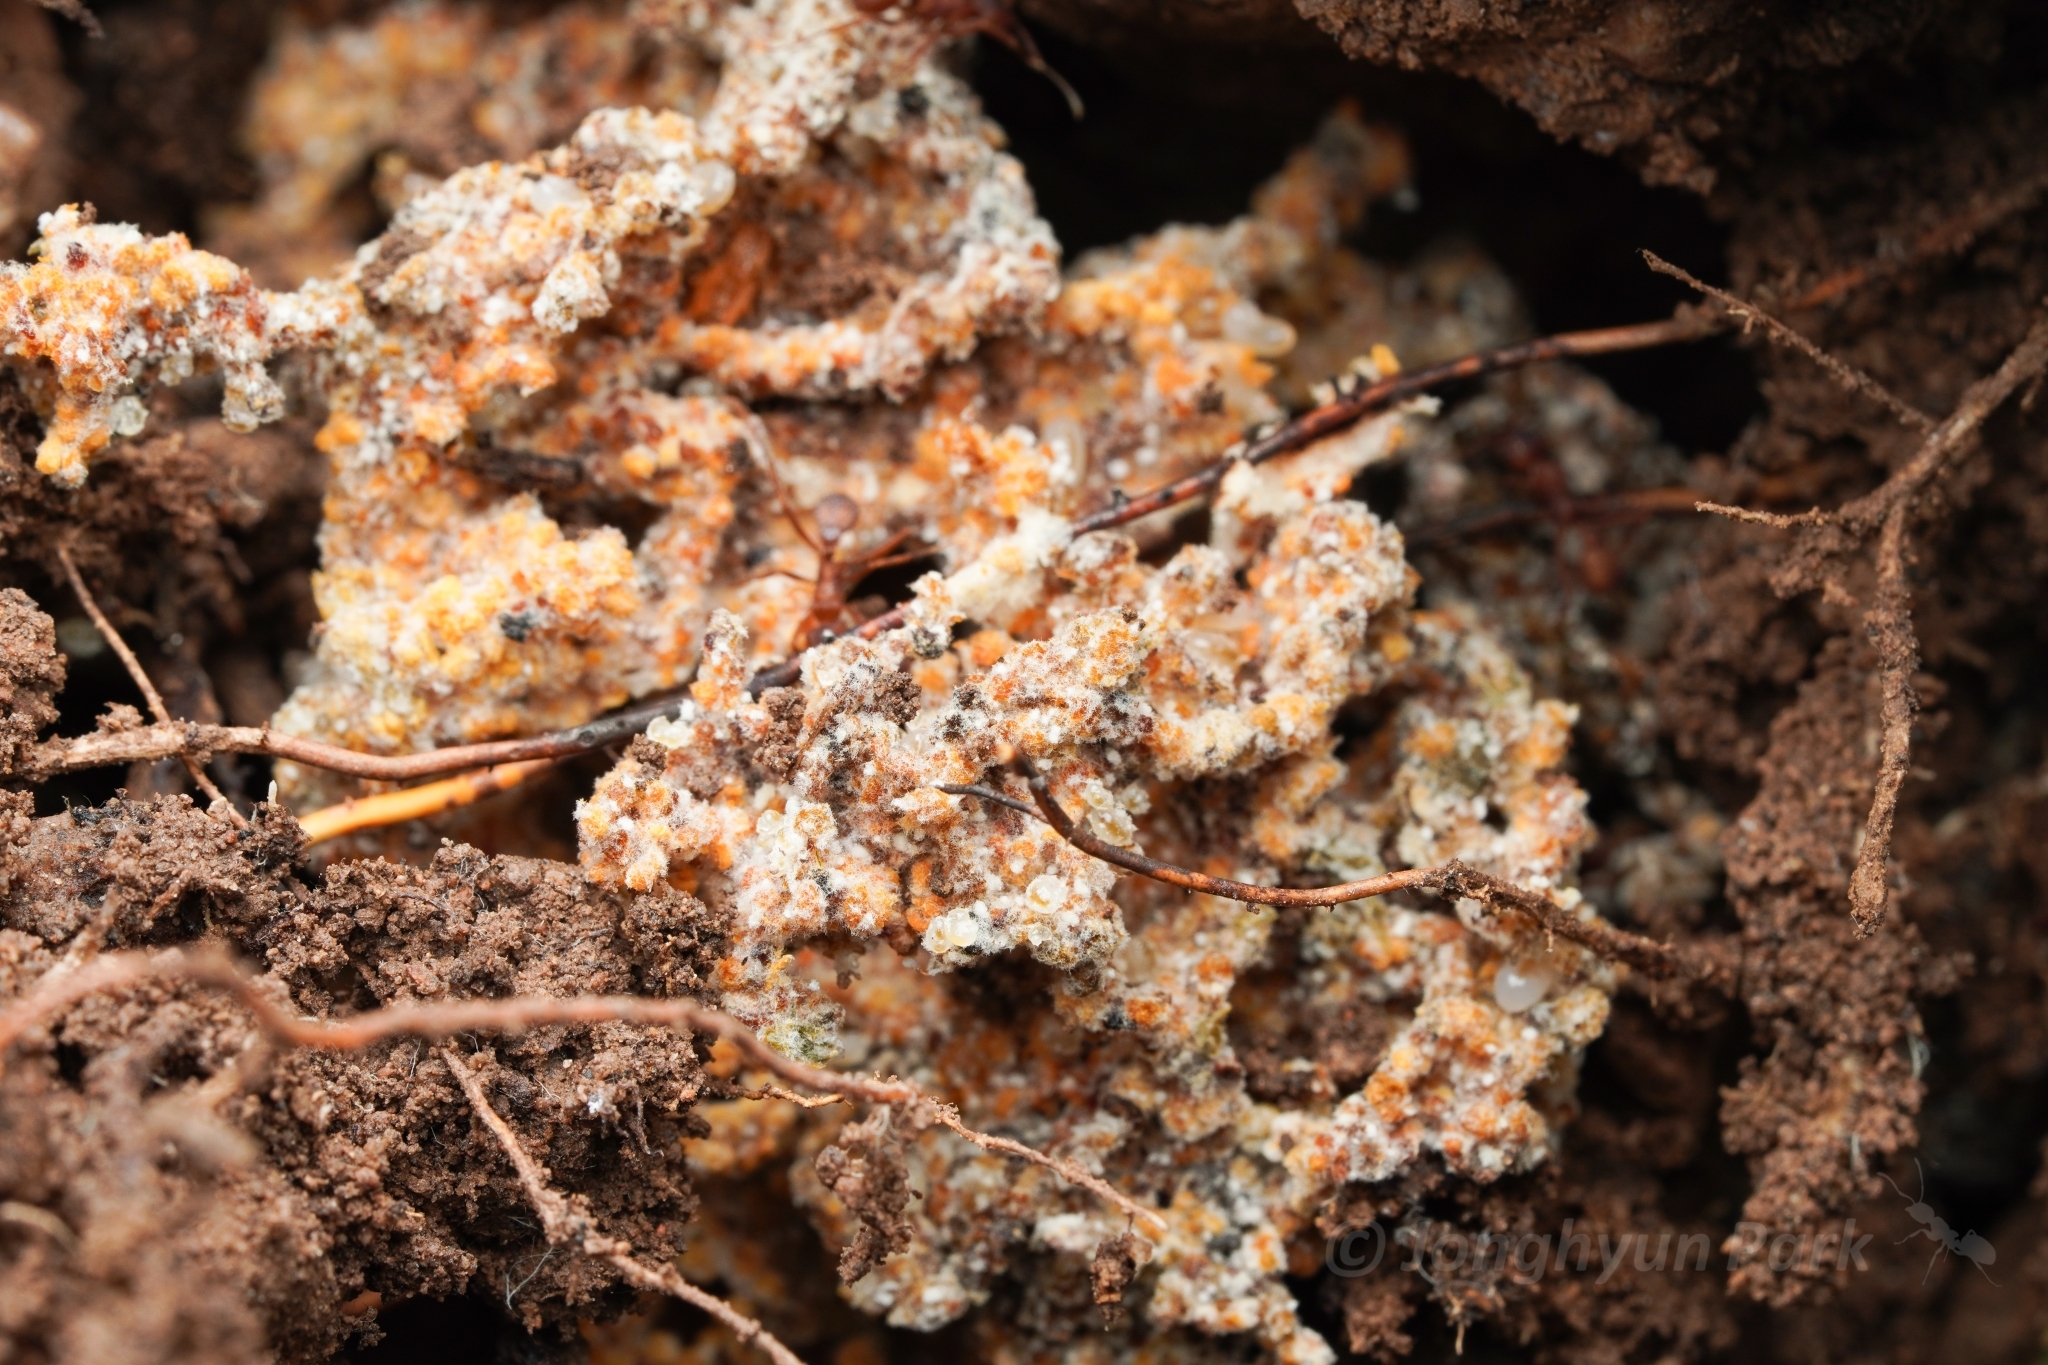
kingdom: Animalia
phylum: Arthropoda
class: Insecta
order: Hymenoptera
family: Formicidae
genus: Trachymyrmex
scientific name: Trachymyrmex arizonensis
